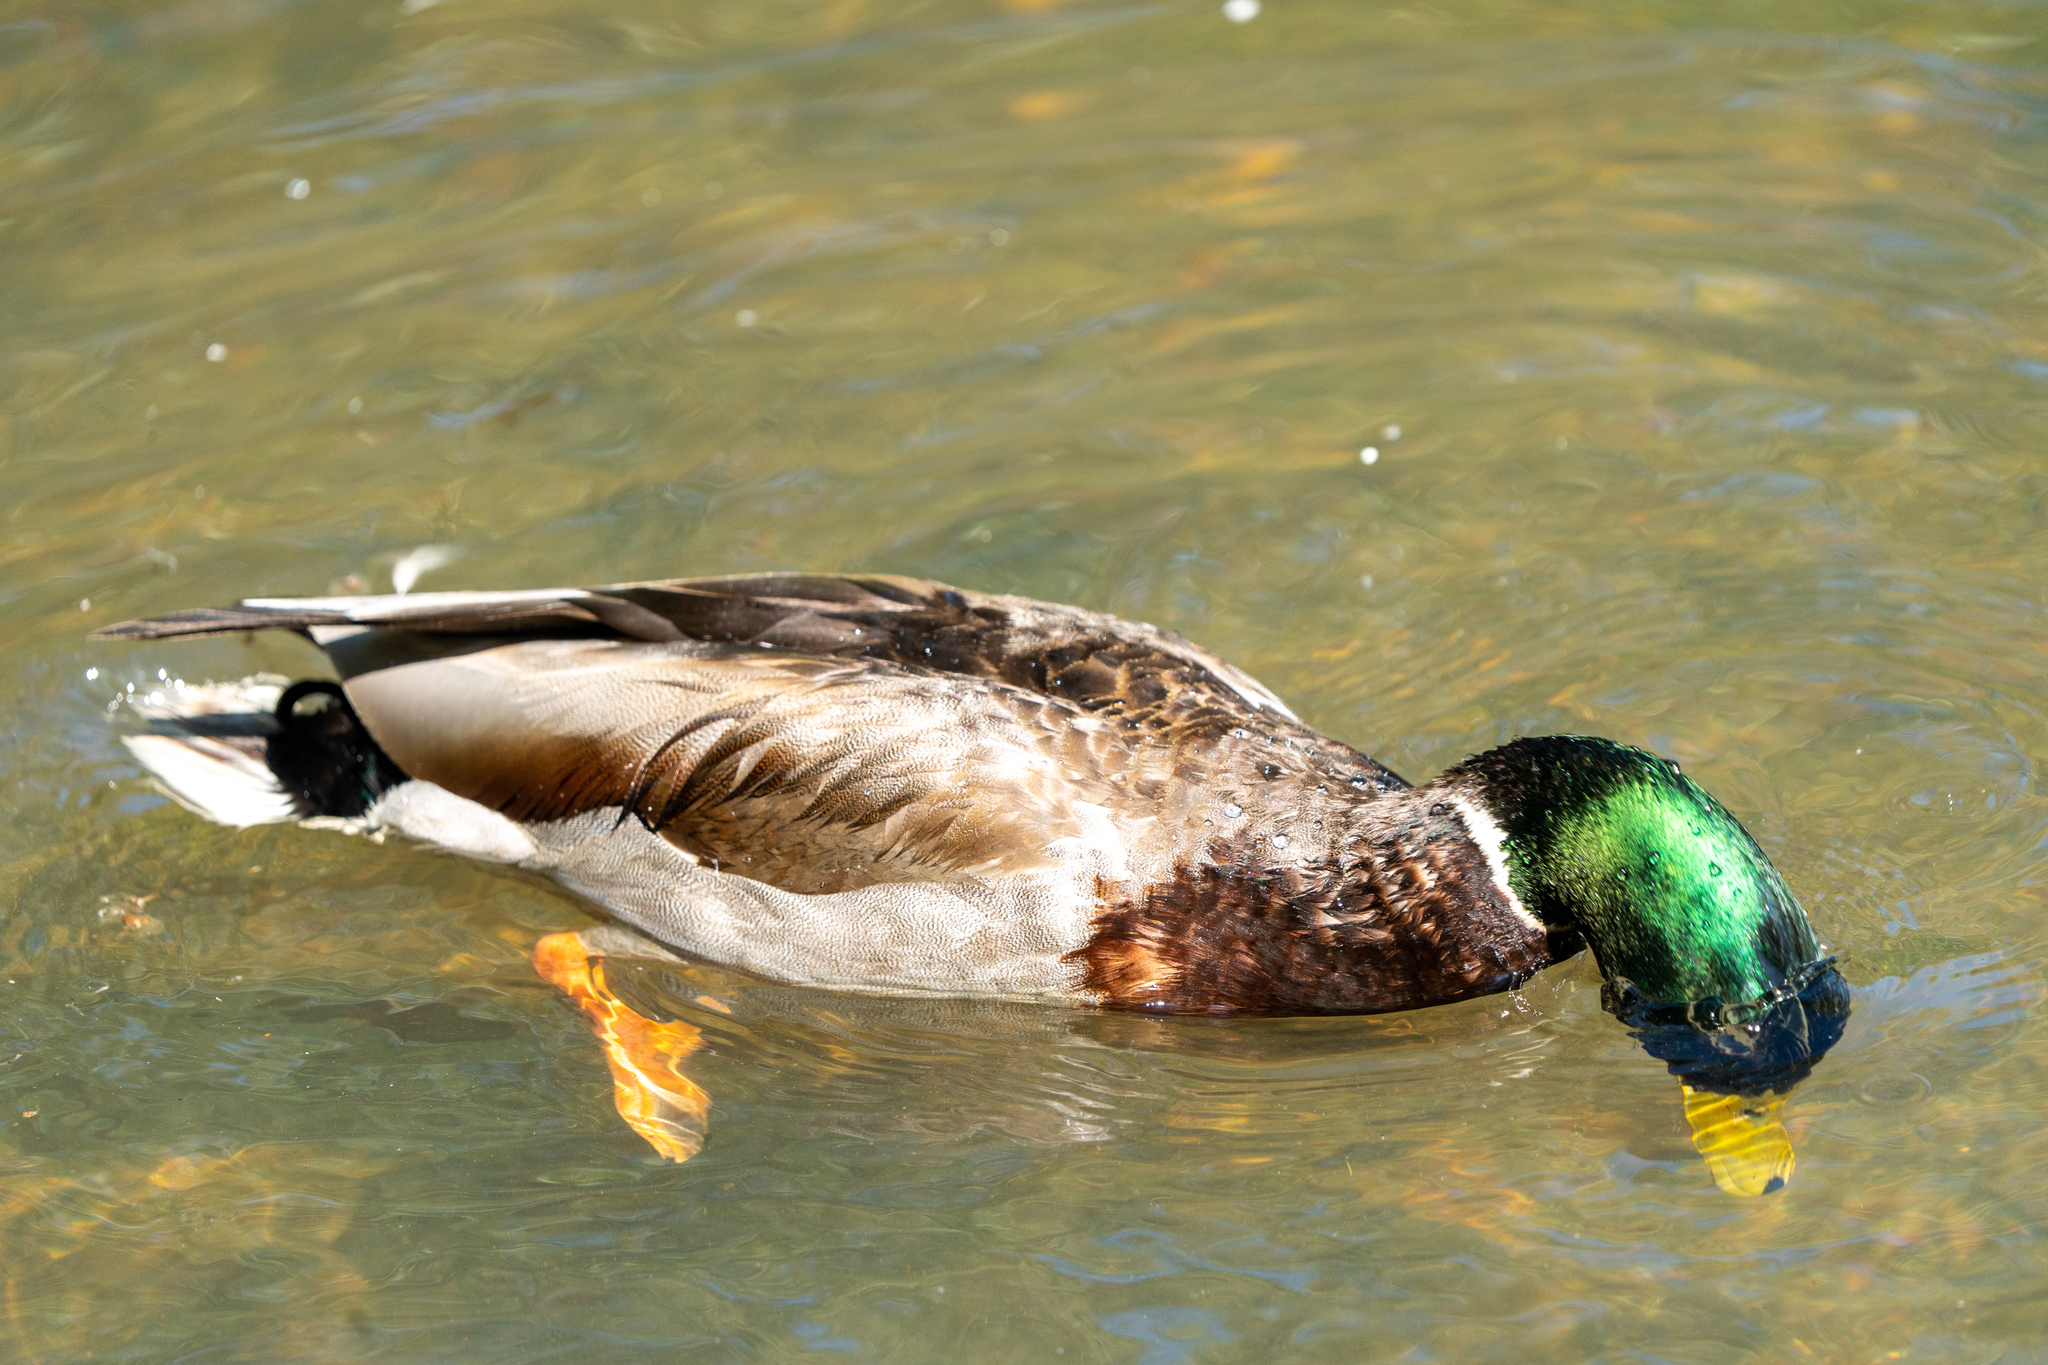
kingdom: Animalia
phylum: Chordata
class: Aves
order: Anseriformes
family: Anatidae
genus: Anas
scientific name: Anas platyrhynchos
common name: Mallard
